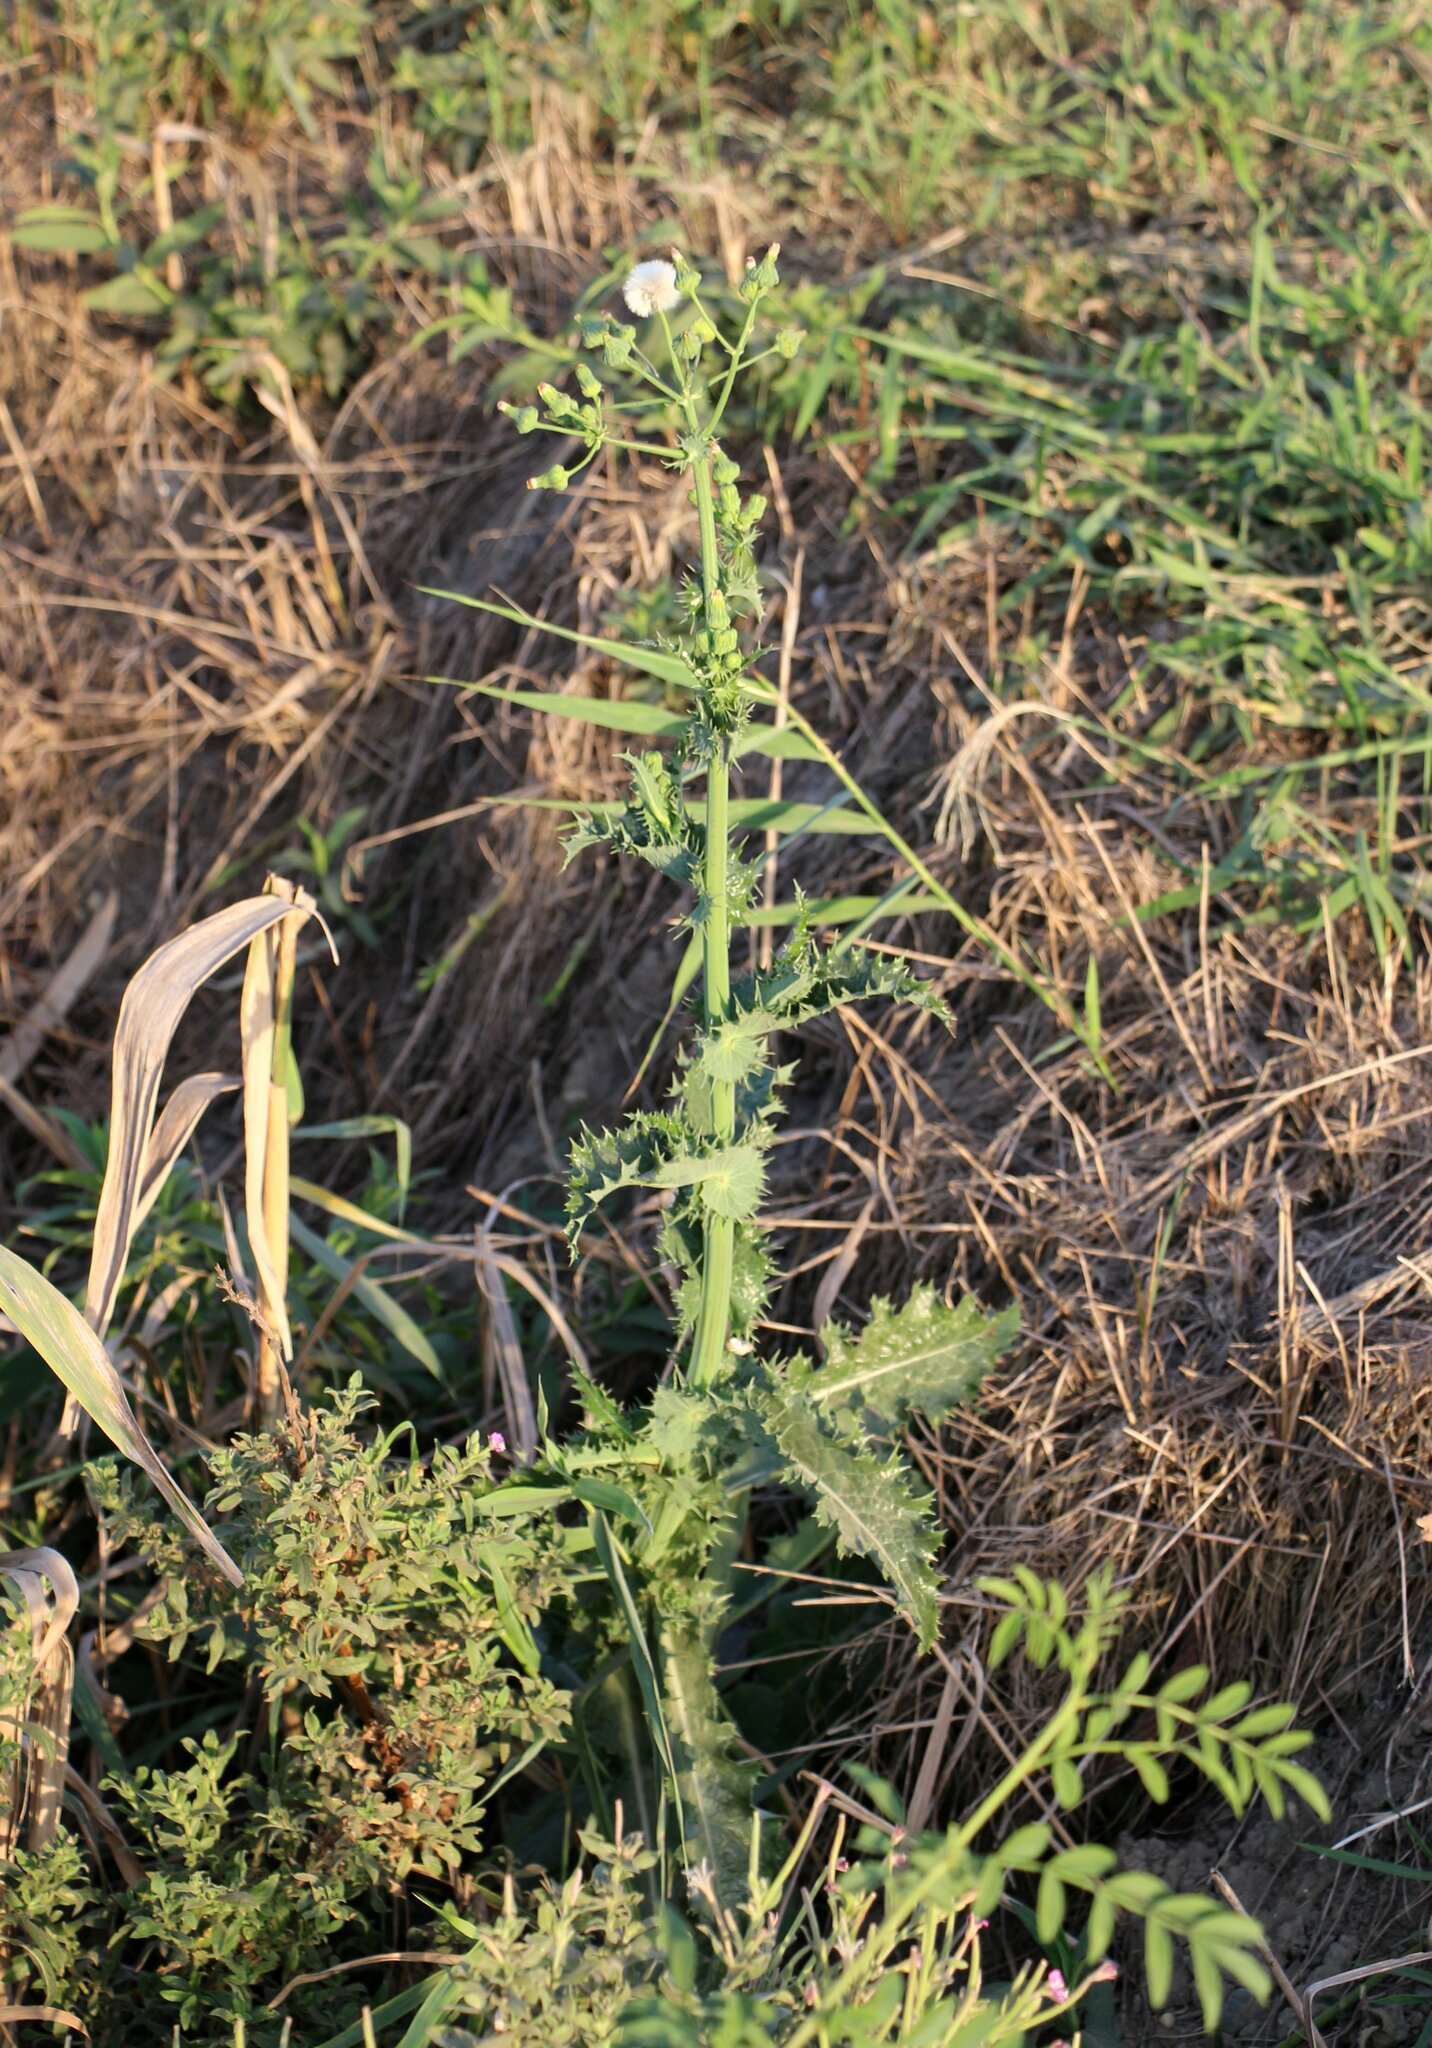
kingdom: Plantae
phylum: Tracheophyta
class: Magnoliopsida
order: Asterales
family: Asteraceae
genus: Sonchus
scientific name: Sonchus asper
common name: Prickly sow-thistle
